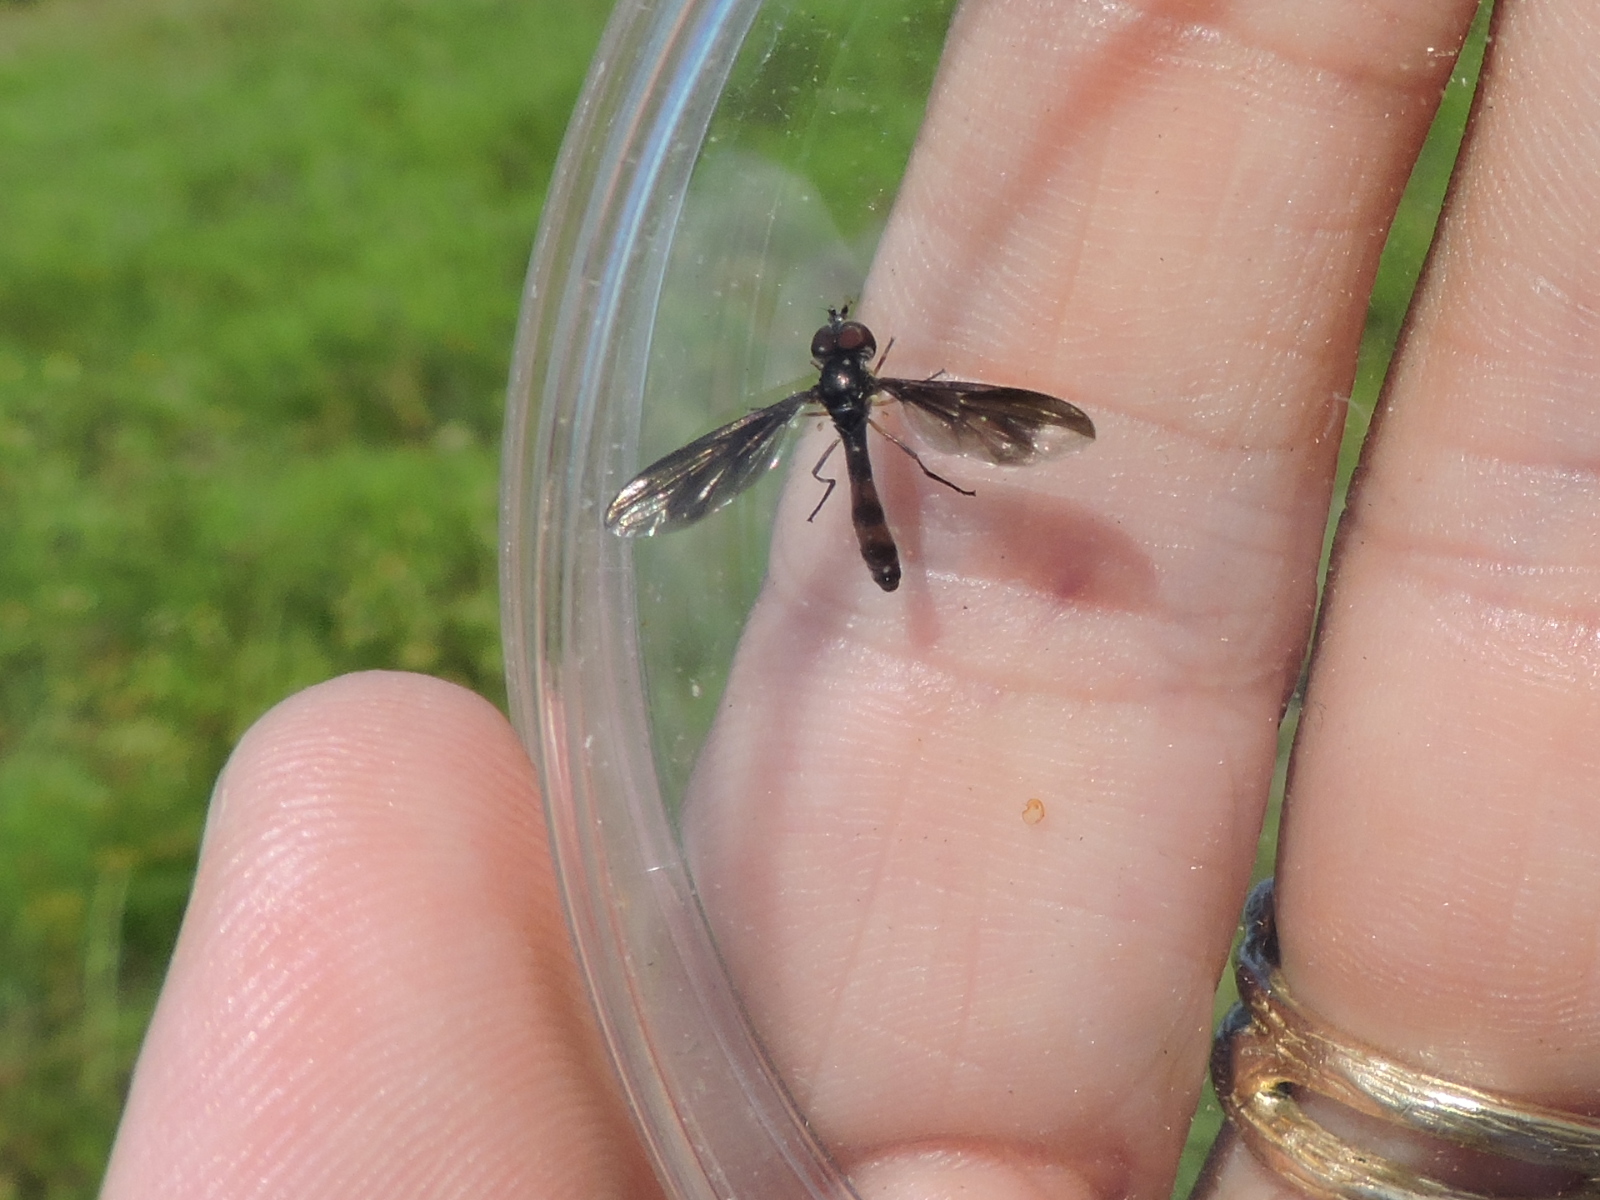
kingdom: Animalia
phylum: Arthropoda
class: Insecta
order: Diptera
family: Syrphidae
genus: Ocyptamus
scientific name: Ocyptamus fuscipennis
